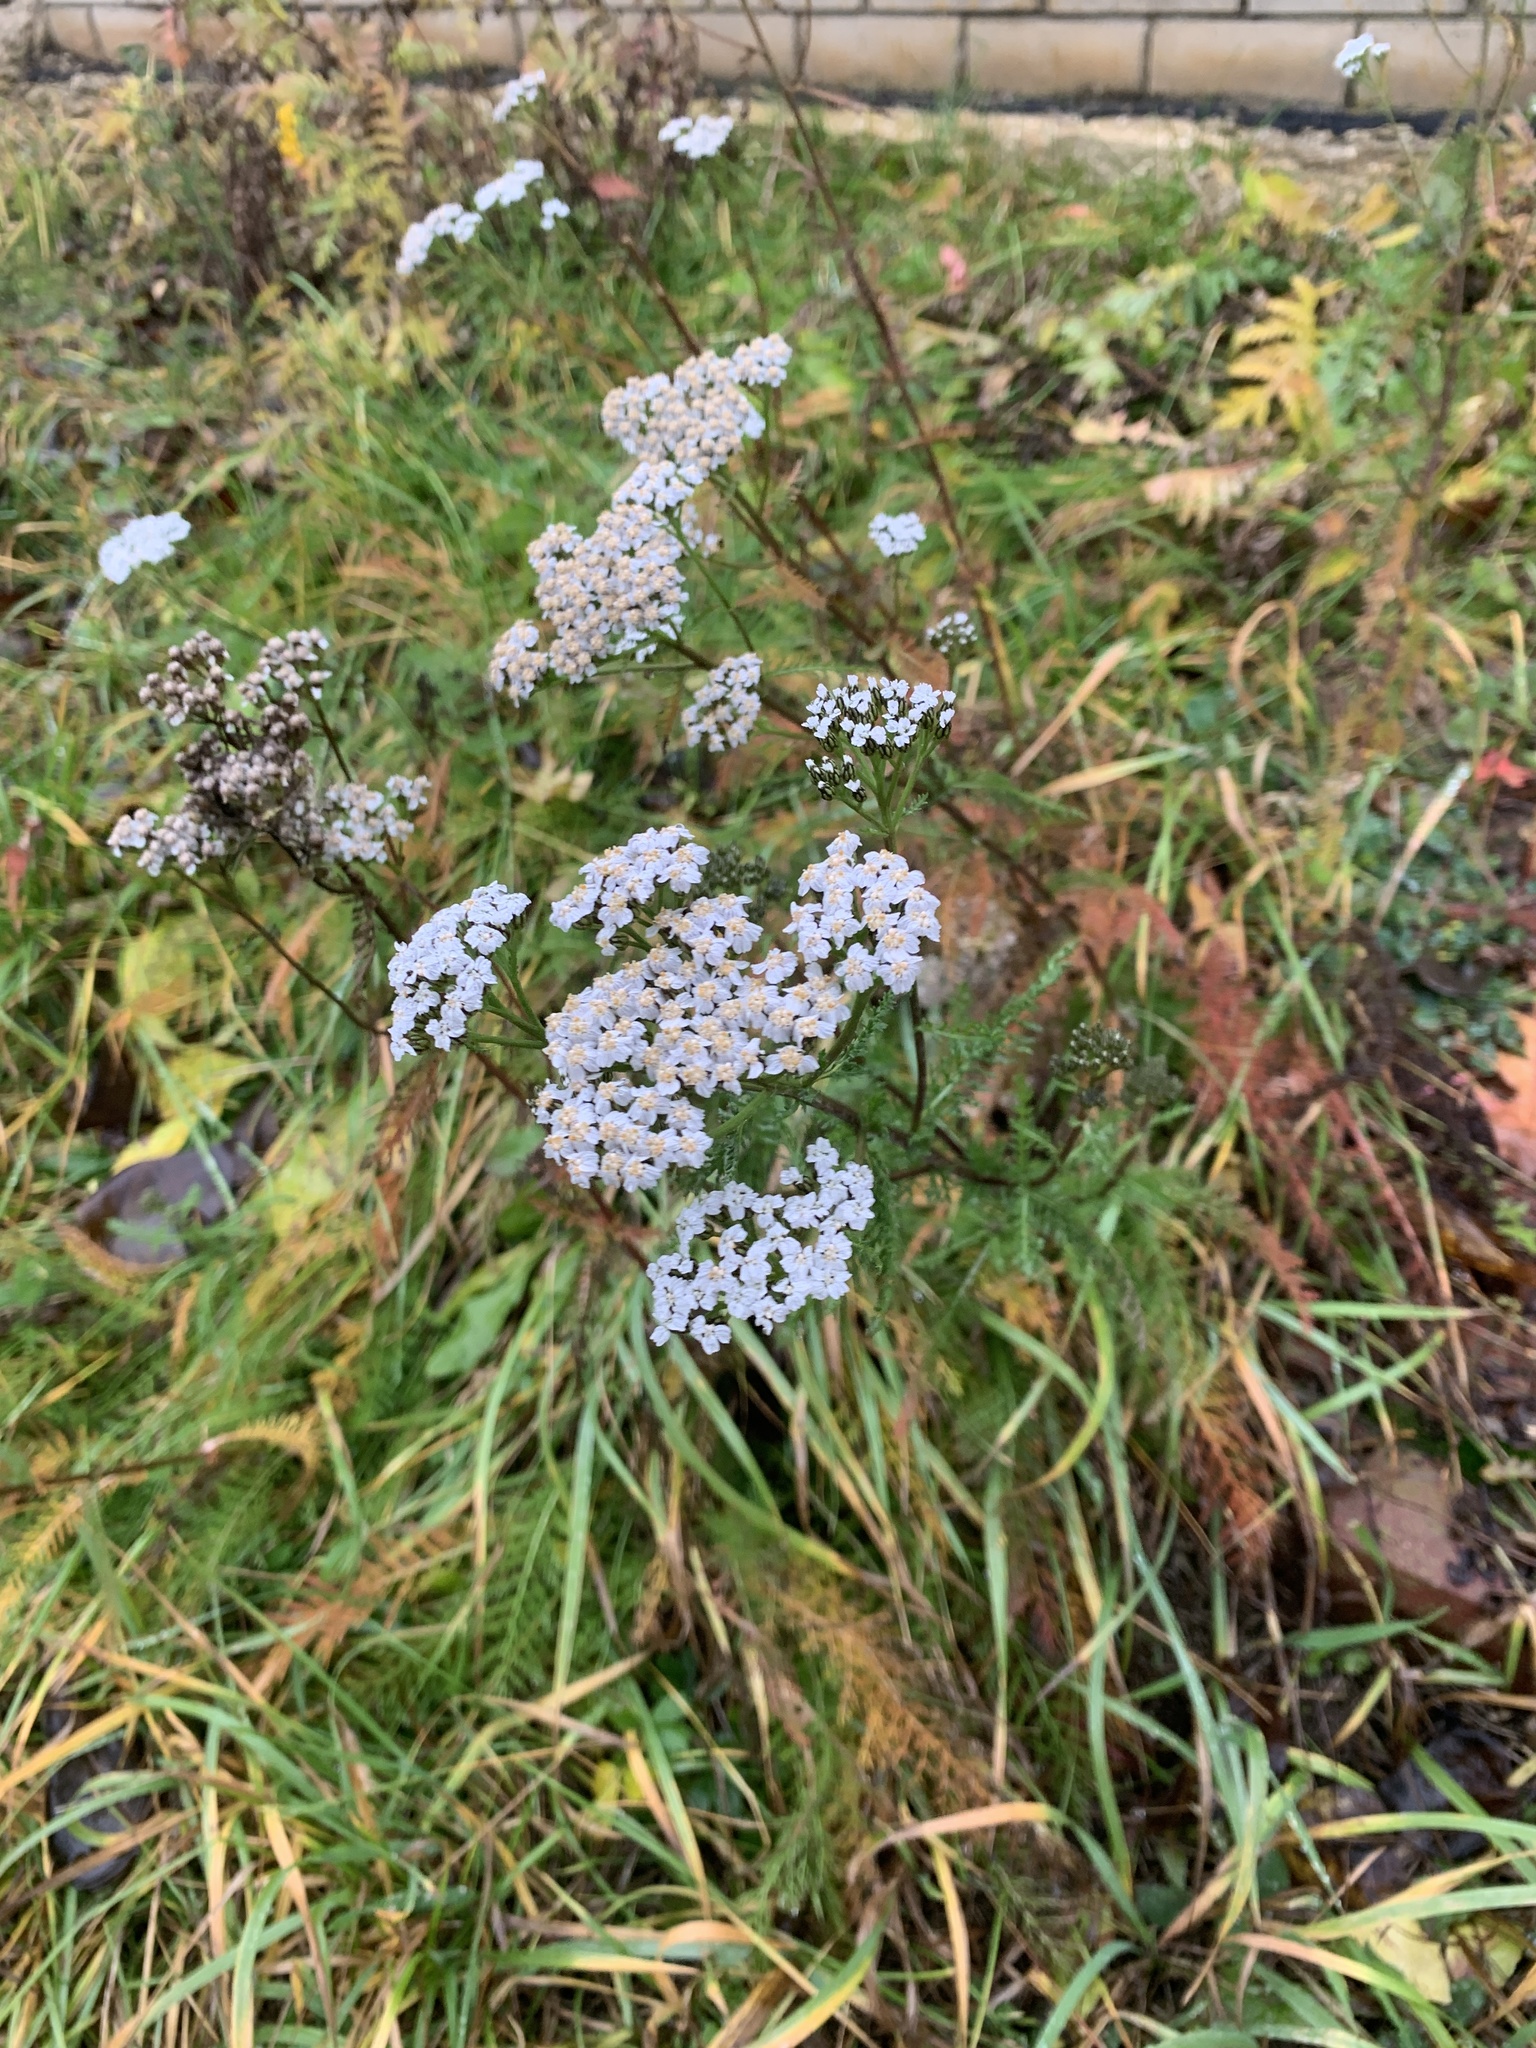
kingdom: Plantae
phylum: Tracheophyta
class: Magnoliopsida
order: Asterales
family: Asteraceae
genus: Achillea
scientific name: Achillea millefolium
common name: Yarrow
